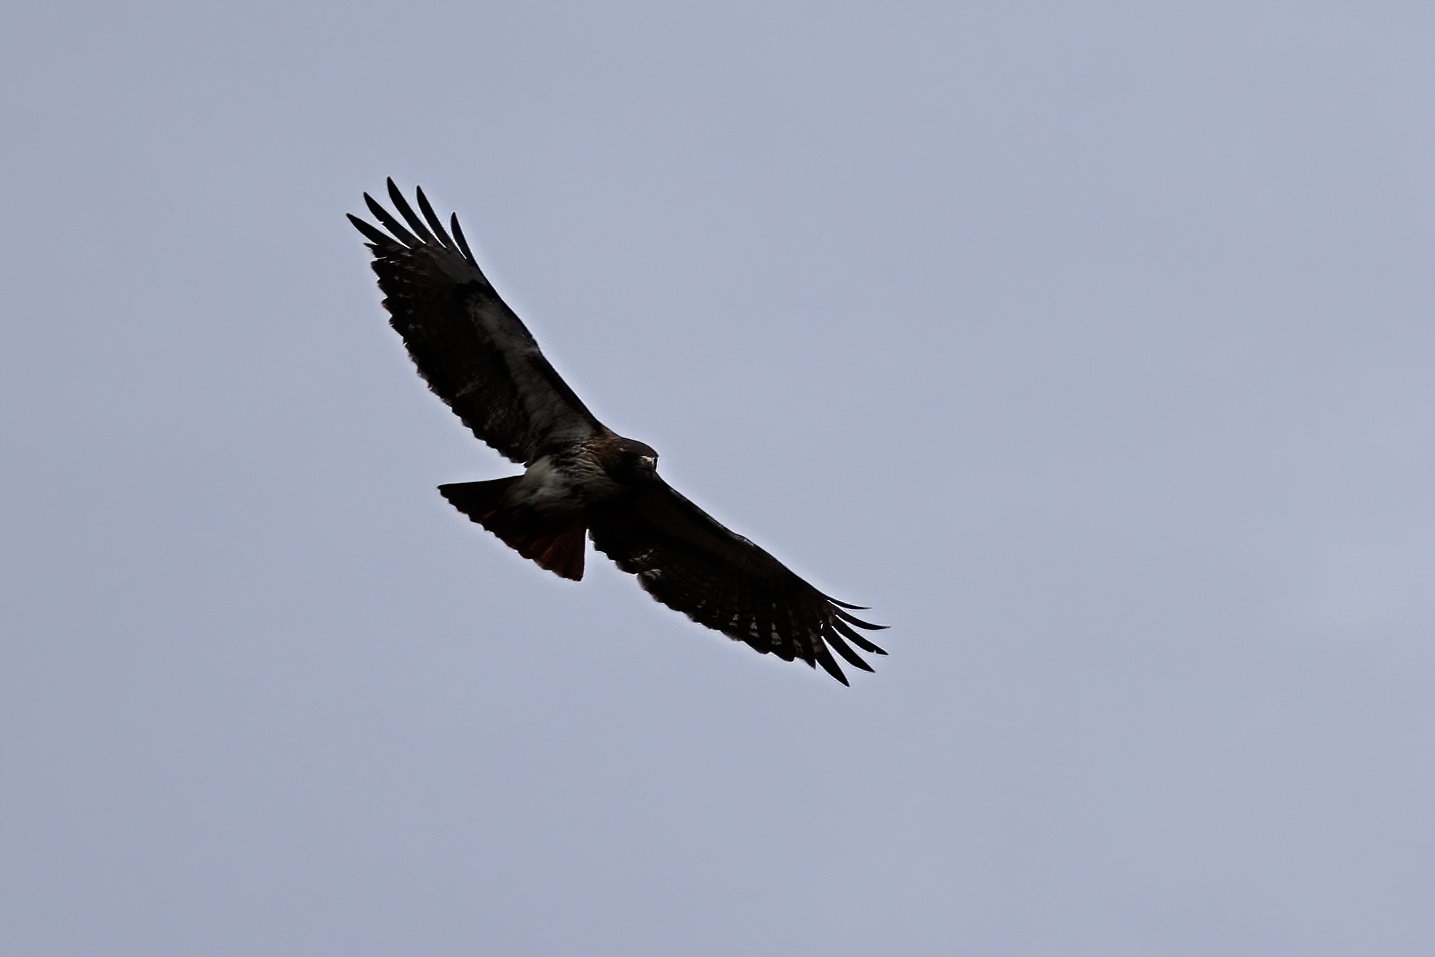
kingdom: Animalia
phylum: Chordata
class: Aves
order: Accipitriformes
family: Accipitridae
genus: Buteo
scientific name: Buteo jamaicensis
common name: Red-tailed hawk
